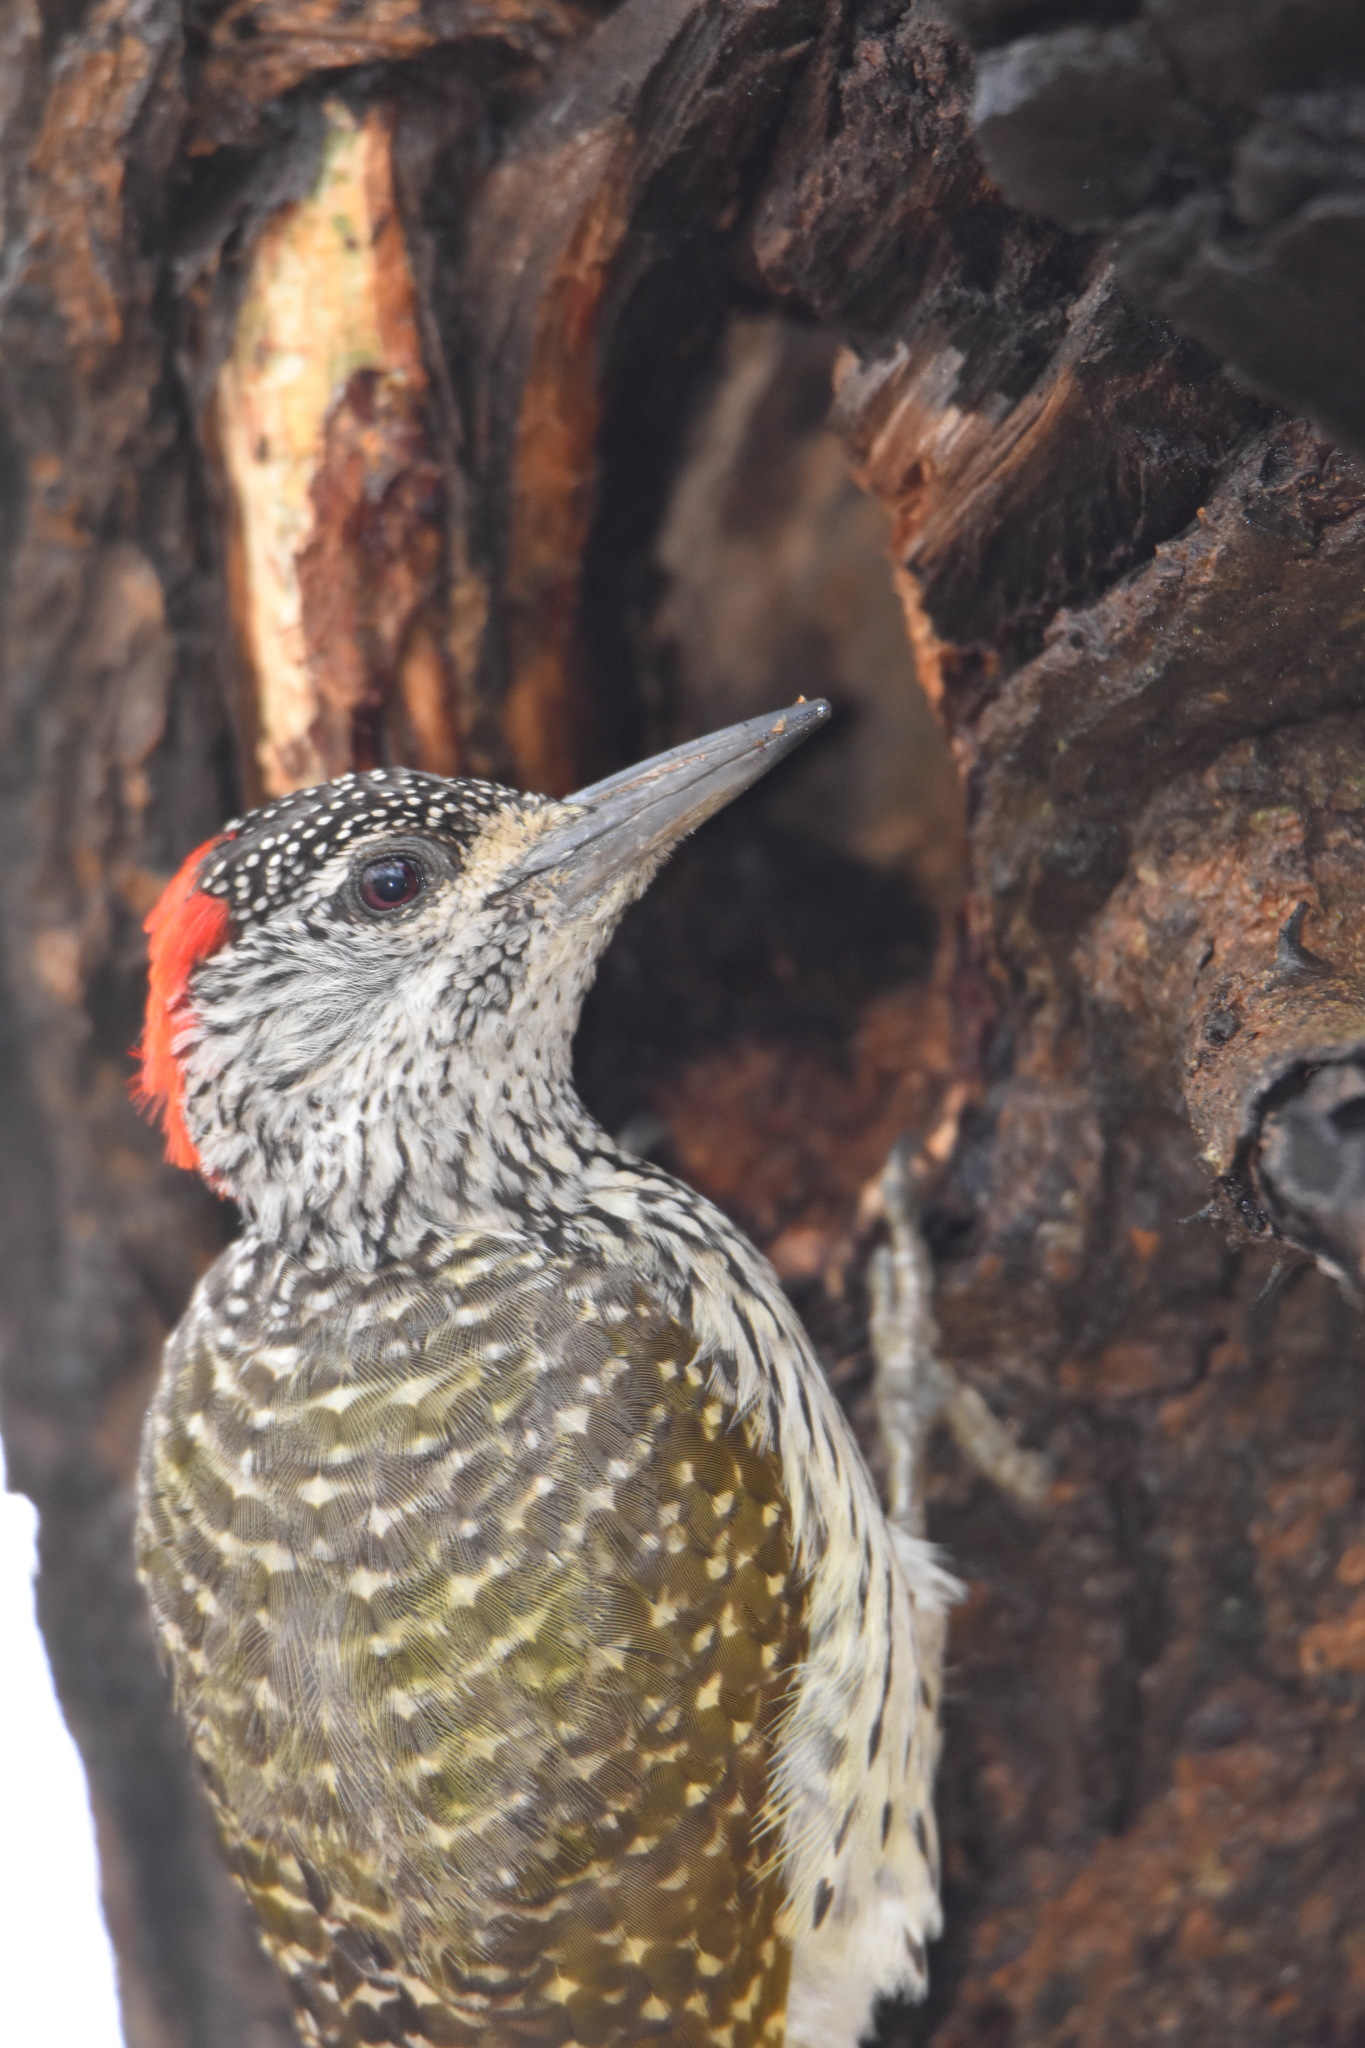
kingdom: Animalia
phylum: Chordata
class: Aves
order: Piciformes
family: Picidae
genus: Campethera
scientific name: Campethera abingoni
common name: Golden-tailed woodpecker
